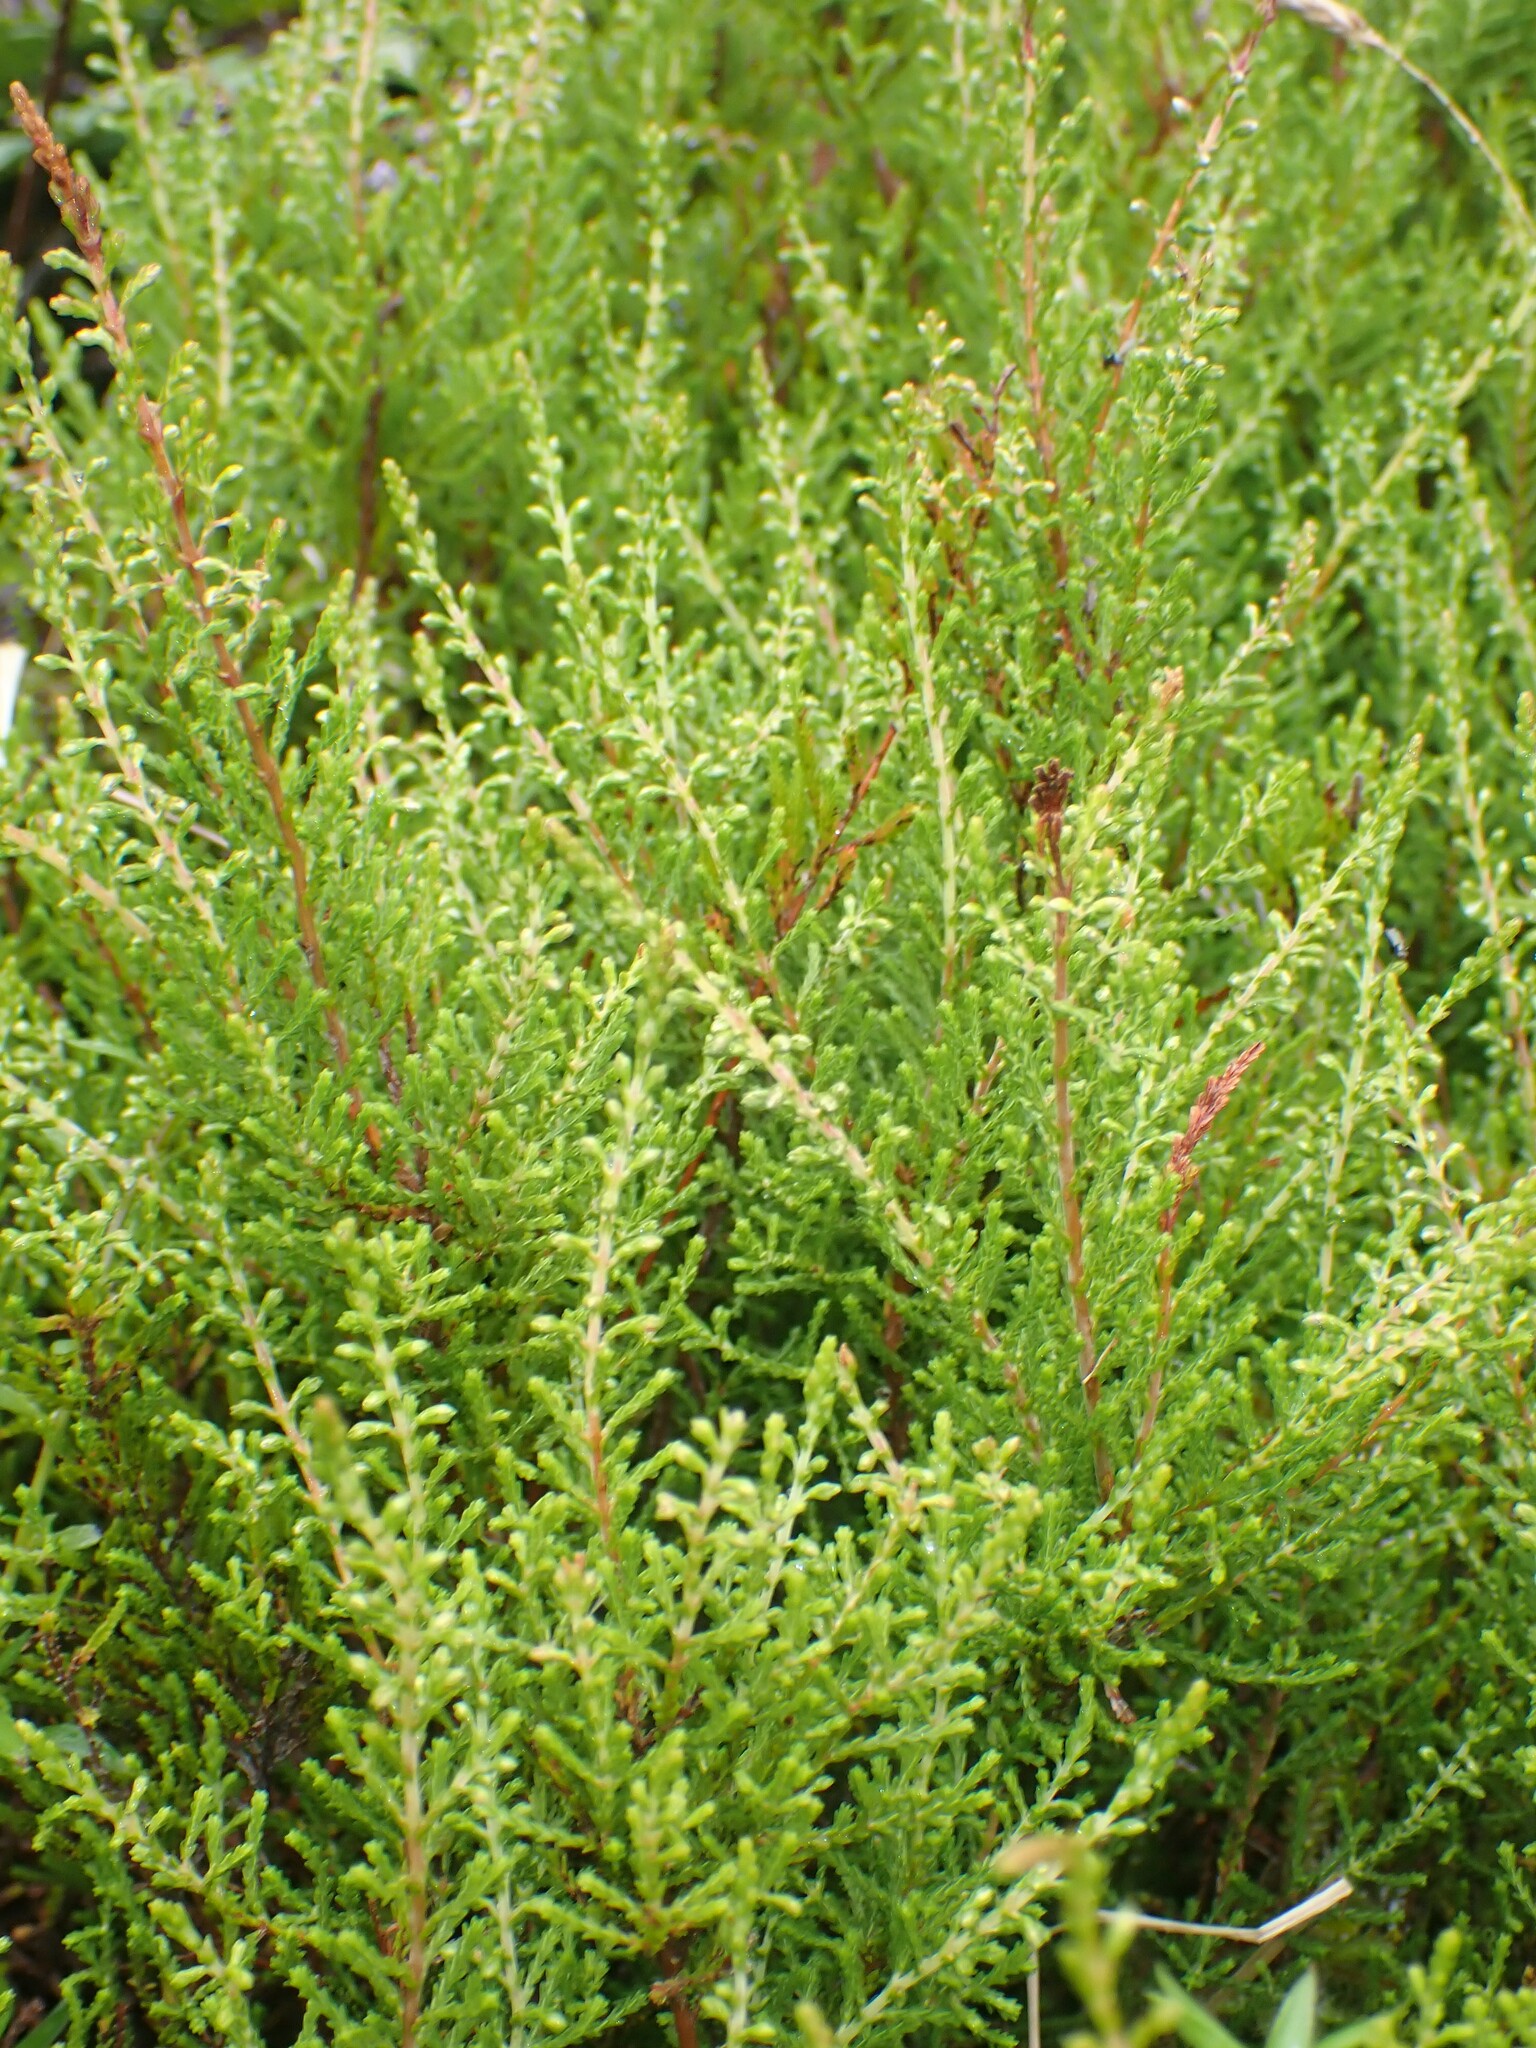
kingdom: Plantae
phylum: Tracheophyta
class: Magnoliopsida
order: Ericales
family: Ericaceae
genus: Calluna
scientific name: Calluna vulgaris
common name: Heather
